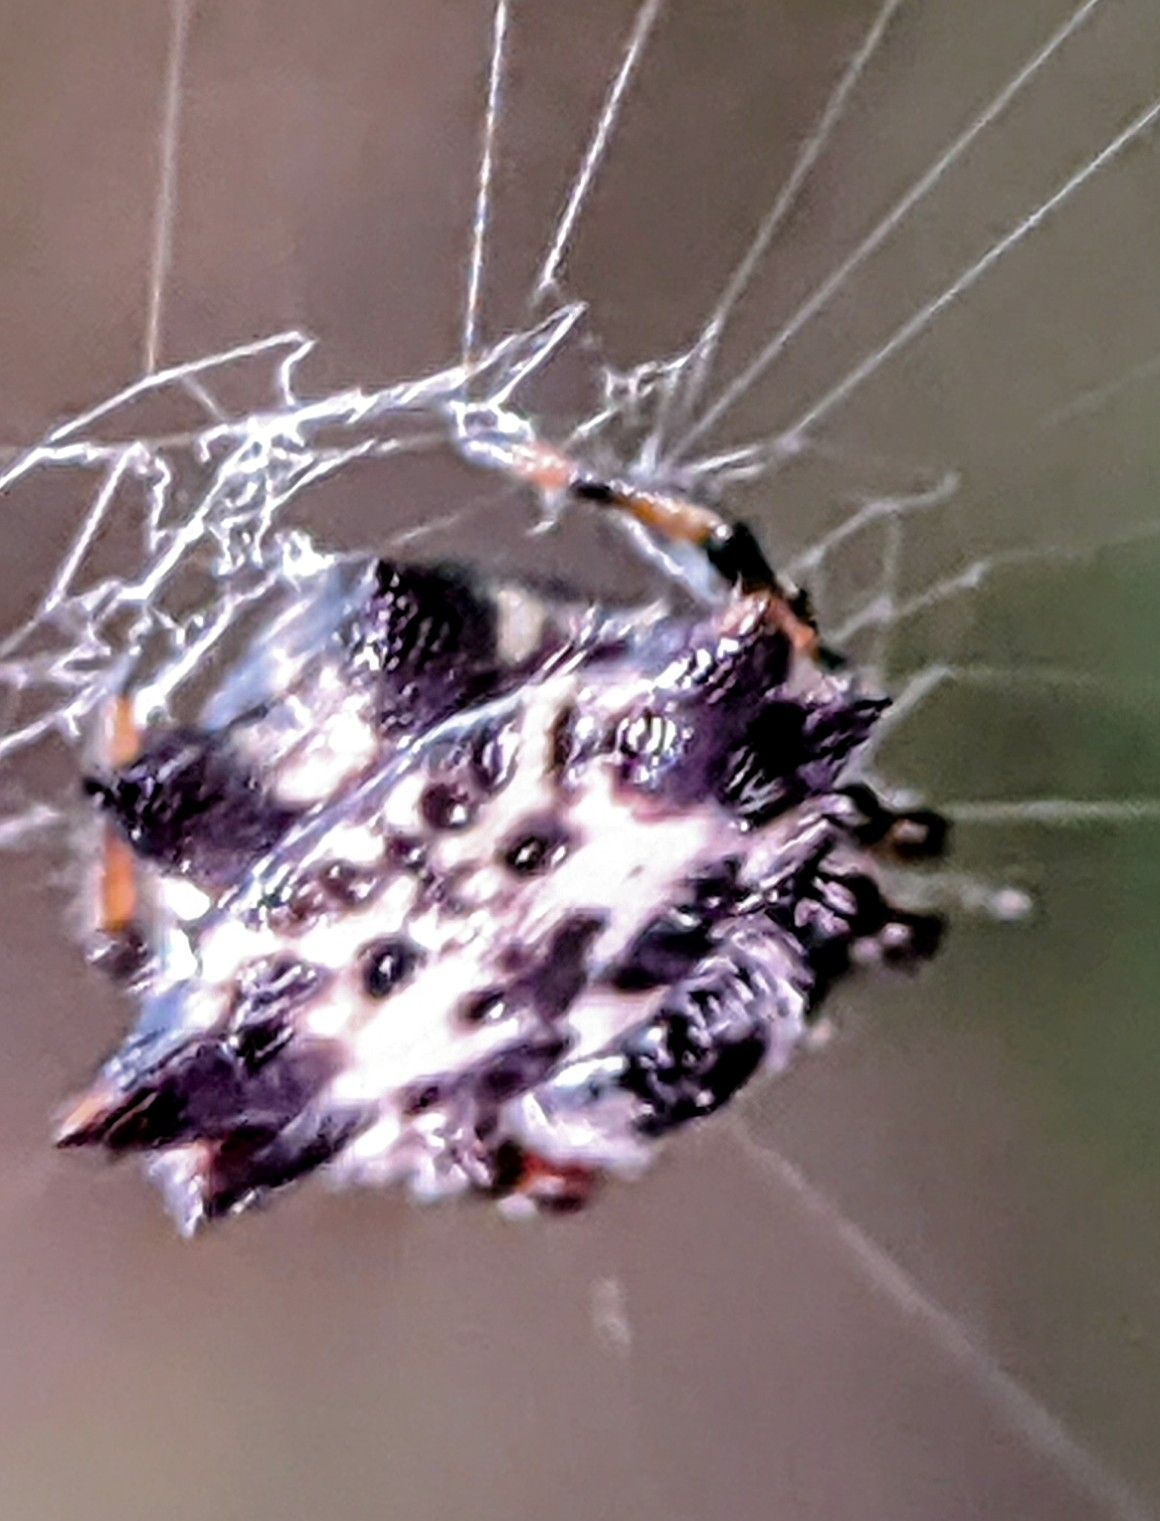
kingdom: Animalia
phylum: Arthropoda
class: Arachnida
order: Araneae
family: Araneidae
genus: Gasteracantha
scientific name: Gasteracantha kuhli
